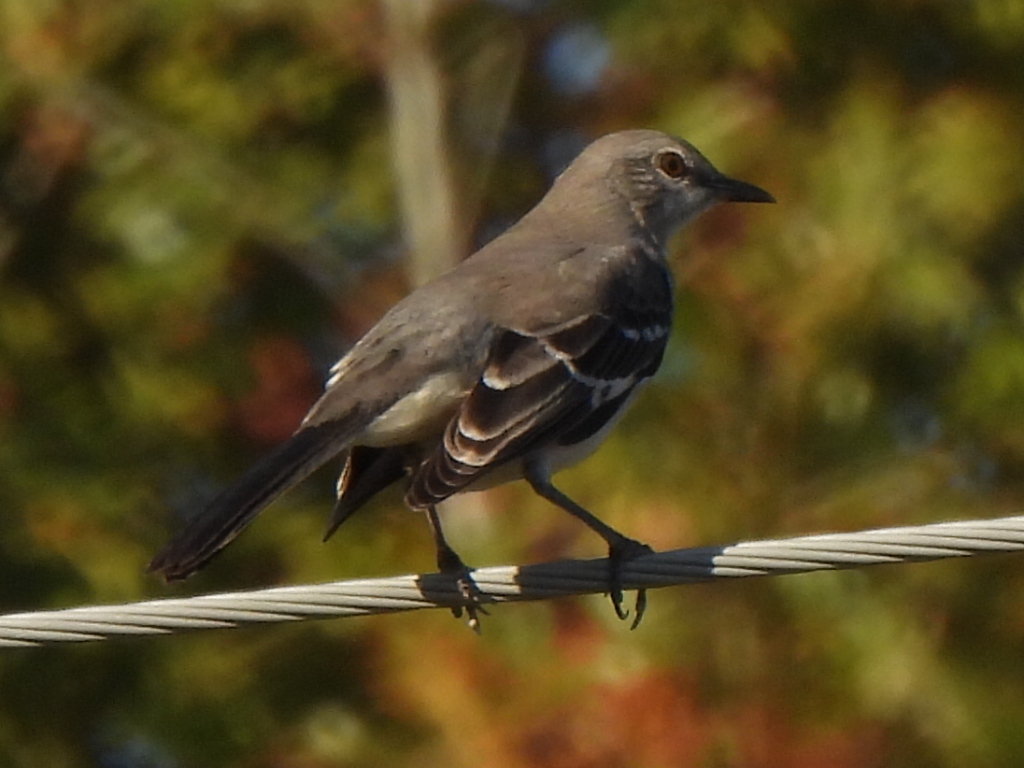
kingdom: Animalia
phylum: Chordata
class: Aves
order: Passeriformes
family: Mimidae
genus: Mimus
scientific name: Mimus polyglottos
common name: Northern mockingbird
